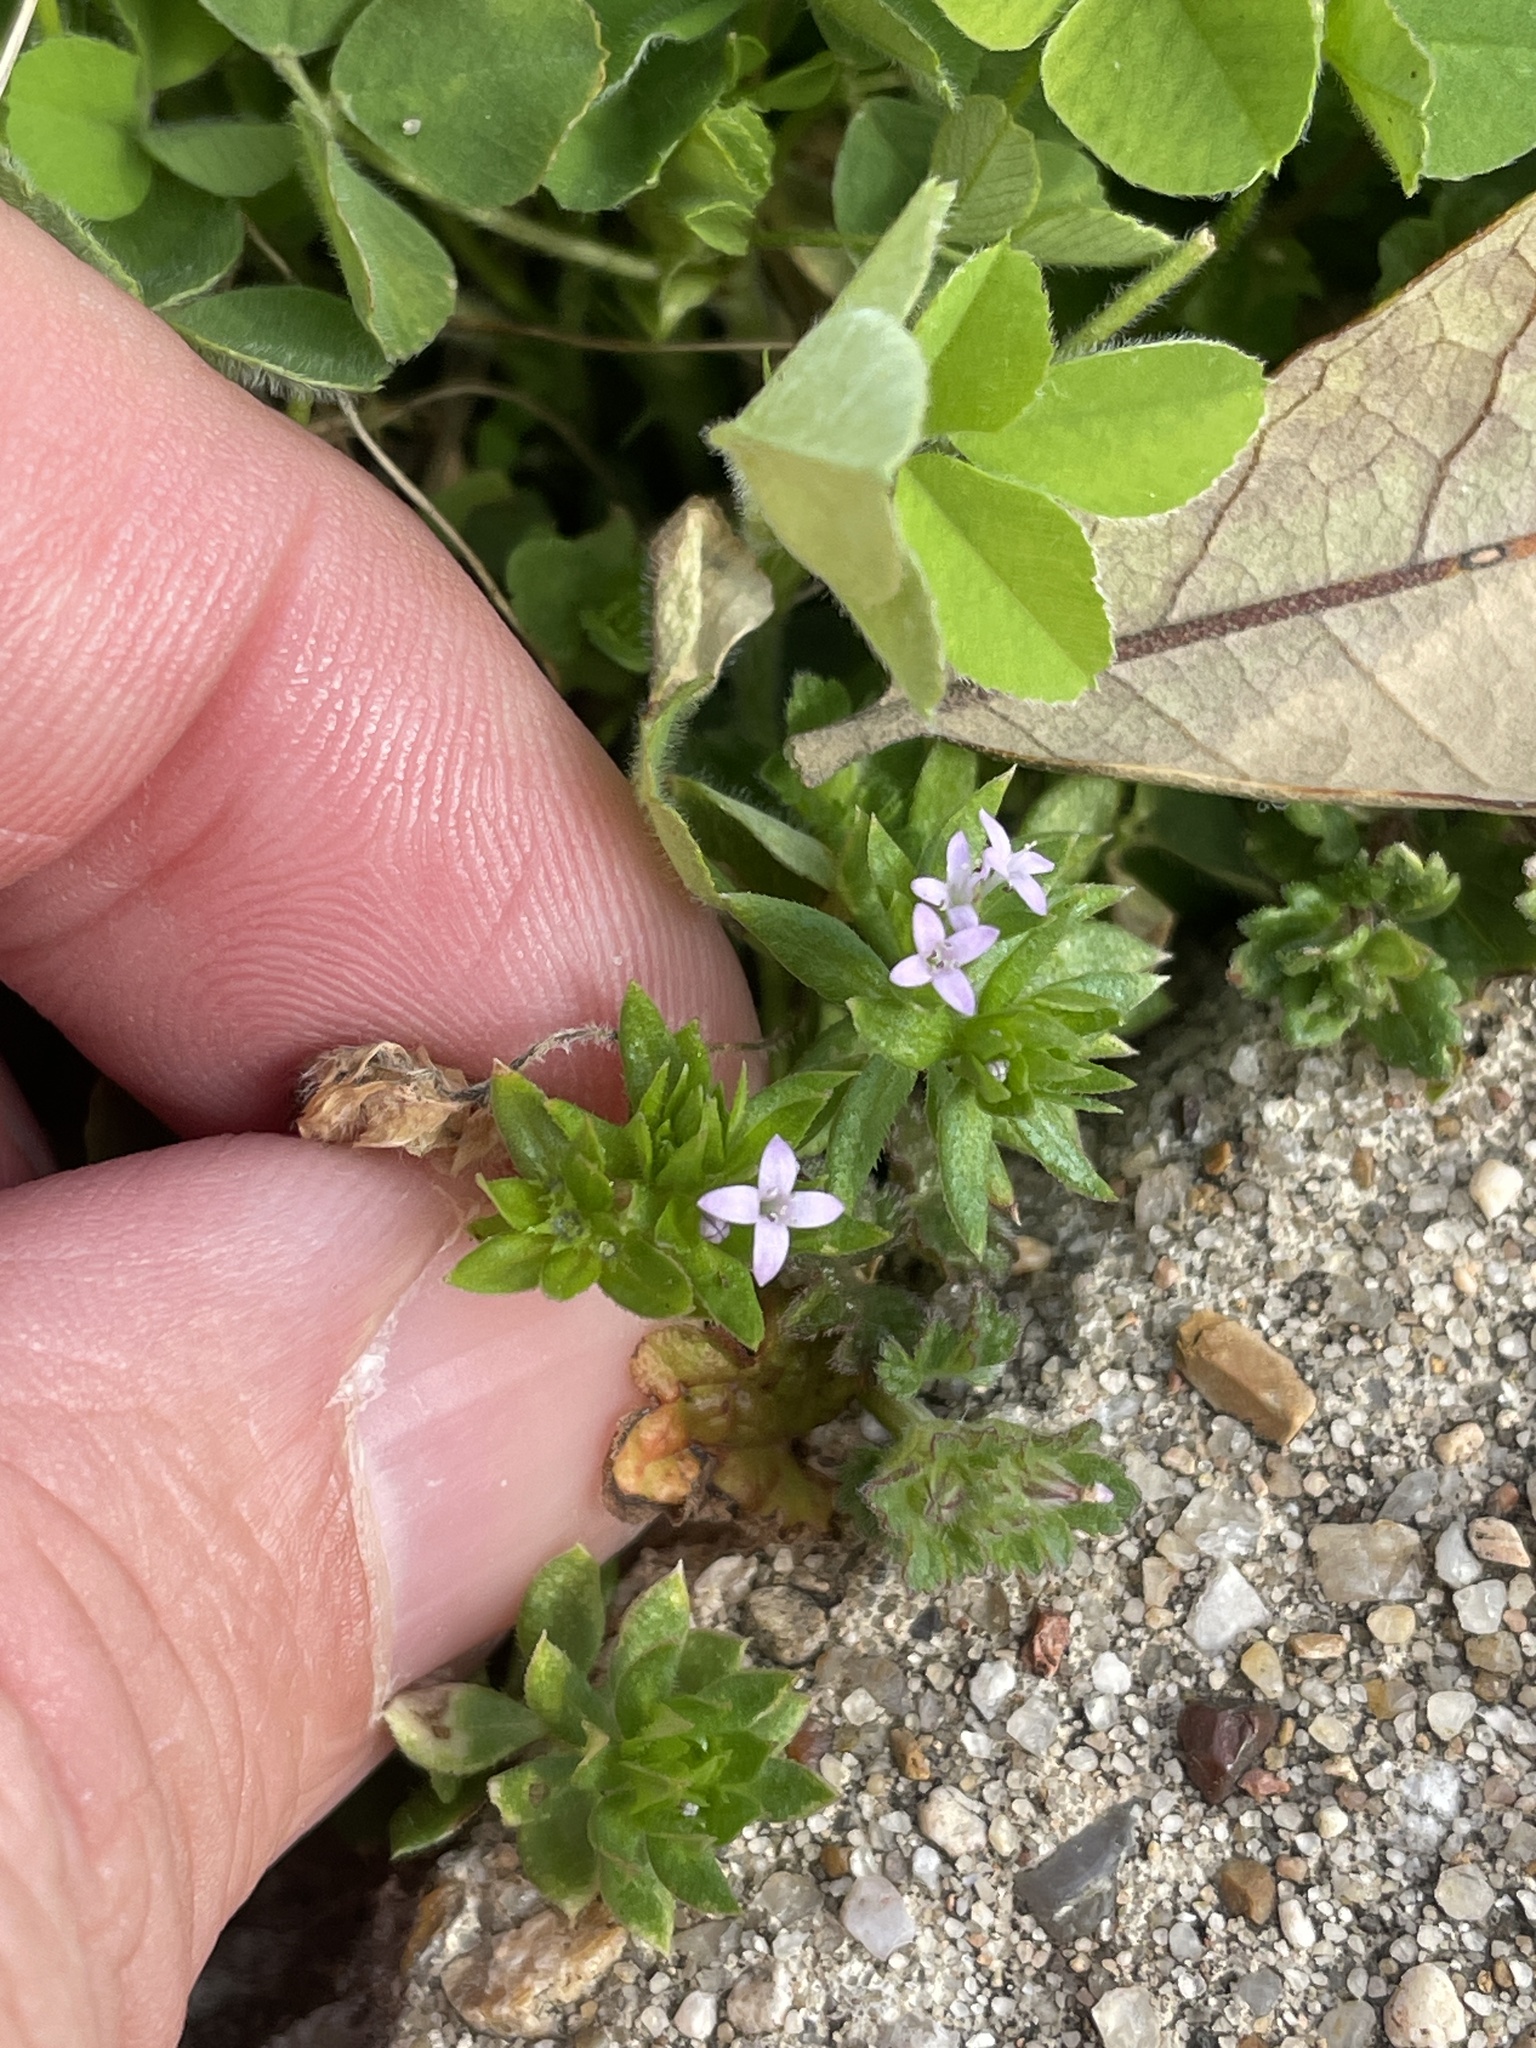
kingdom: Plantae
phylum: Tracheophyta
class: Magnoliopsida
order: Gentianales
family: Rubiaceae
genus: Sherardia
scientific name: Sherardia arvensis
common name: Field madder
